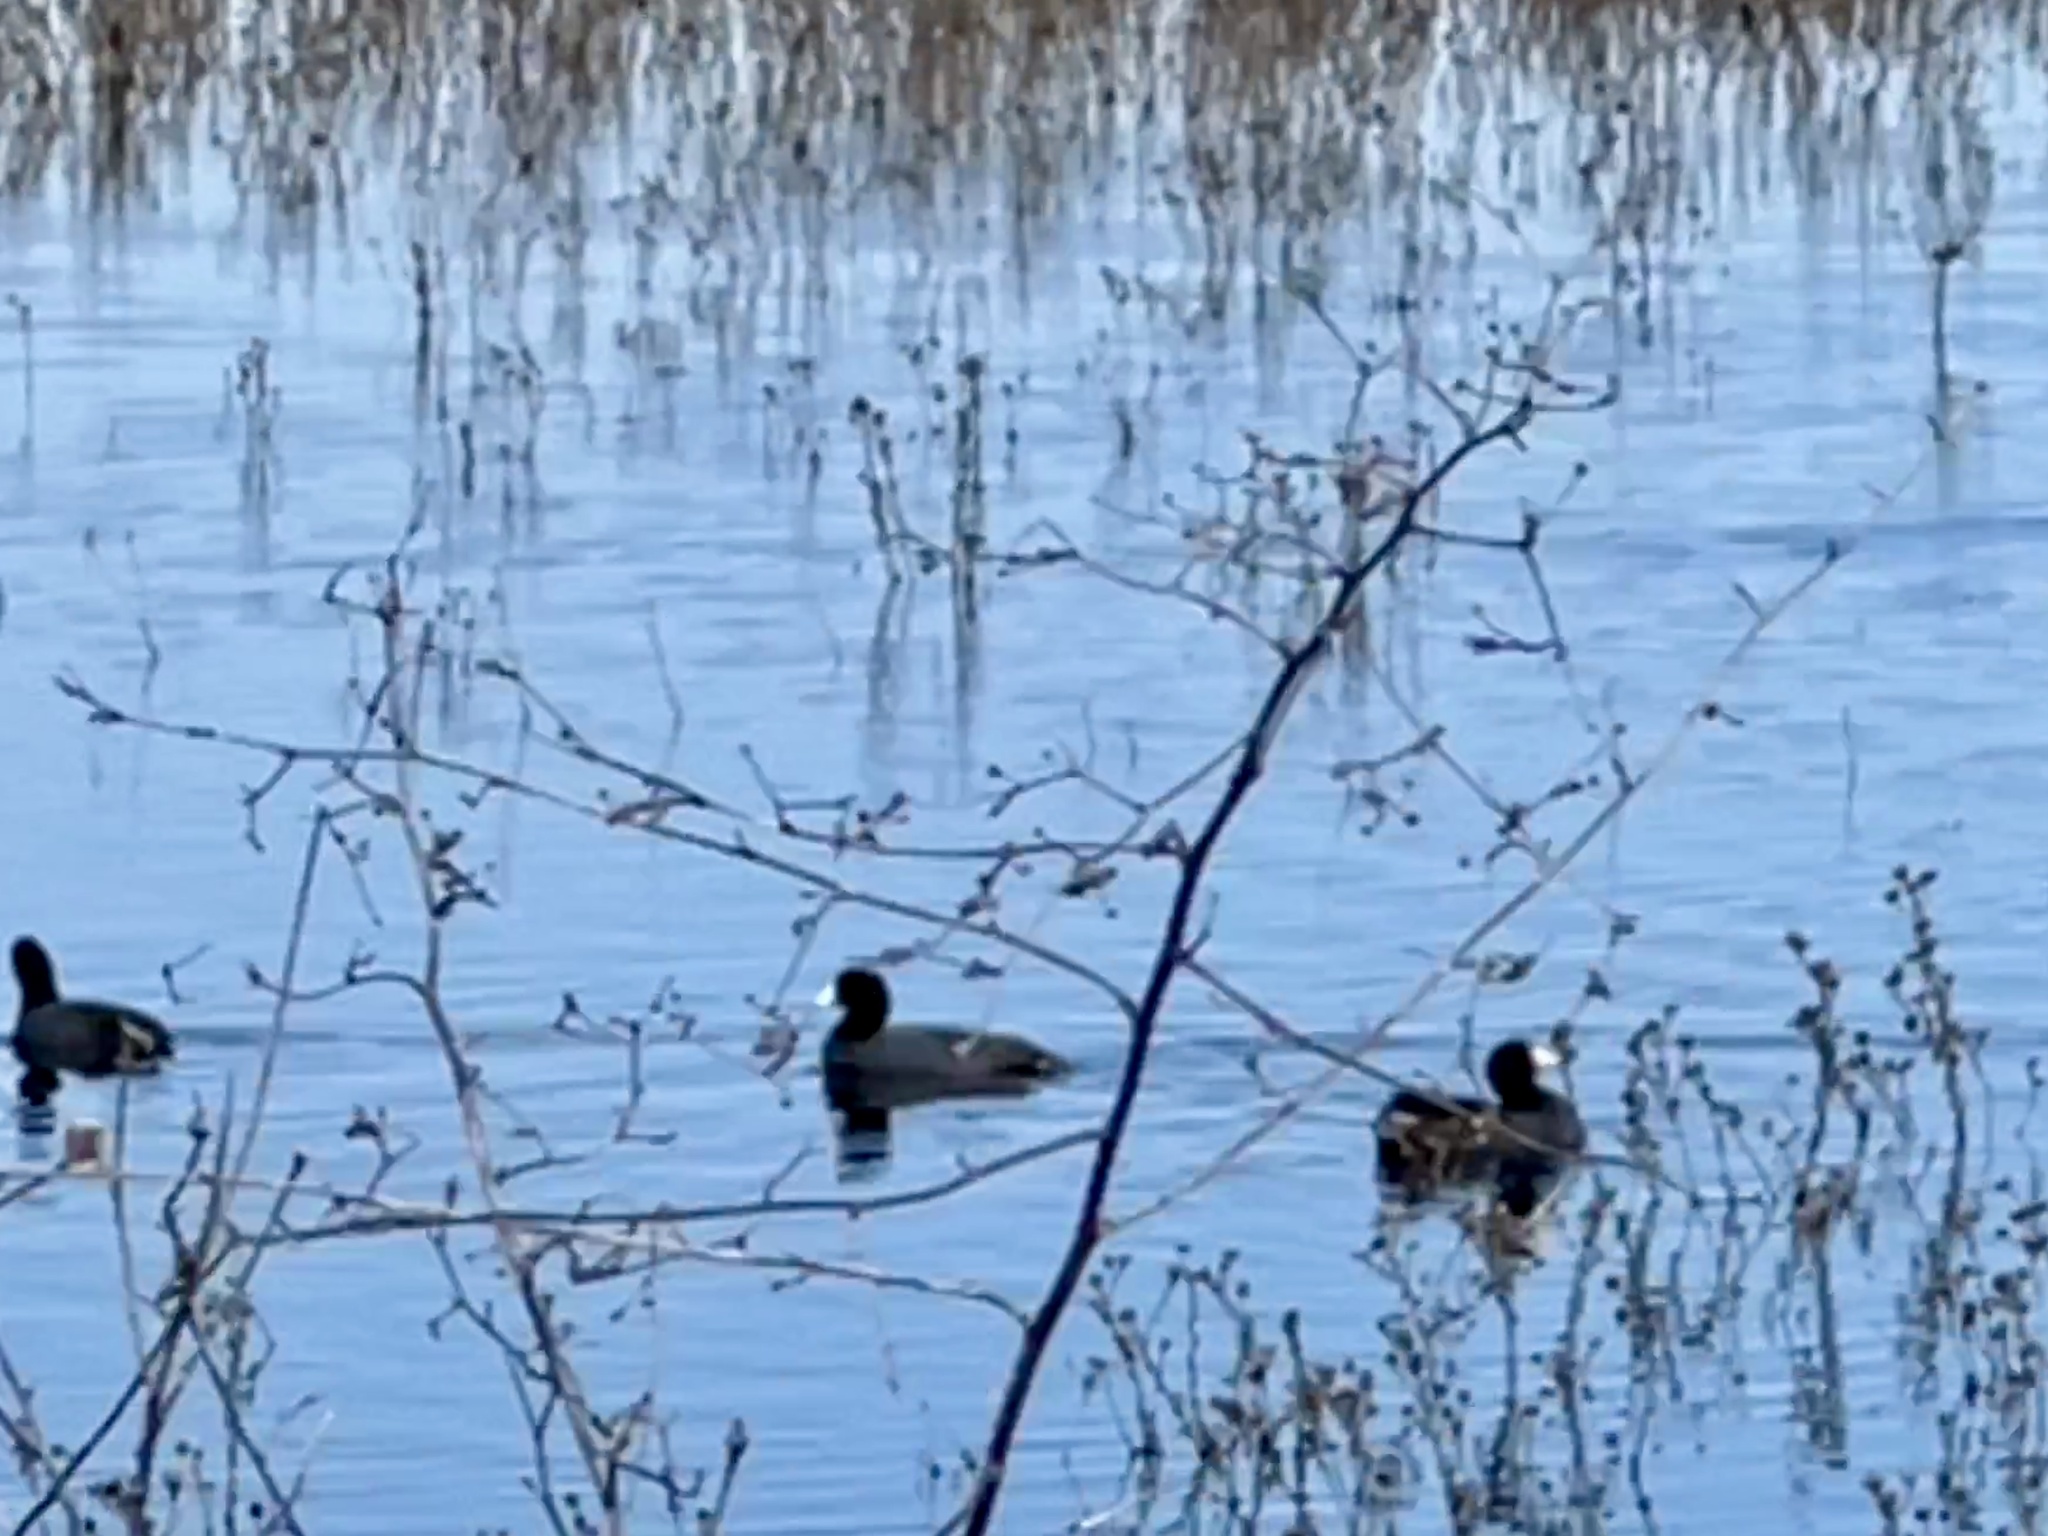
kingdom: Animalia
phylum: Chordata
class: Aves
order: Gruiformes
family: Rallidae
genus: Fulica
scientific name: Fulica americana
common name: American coot
